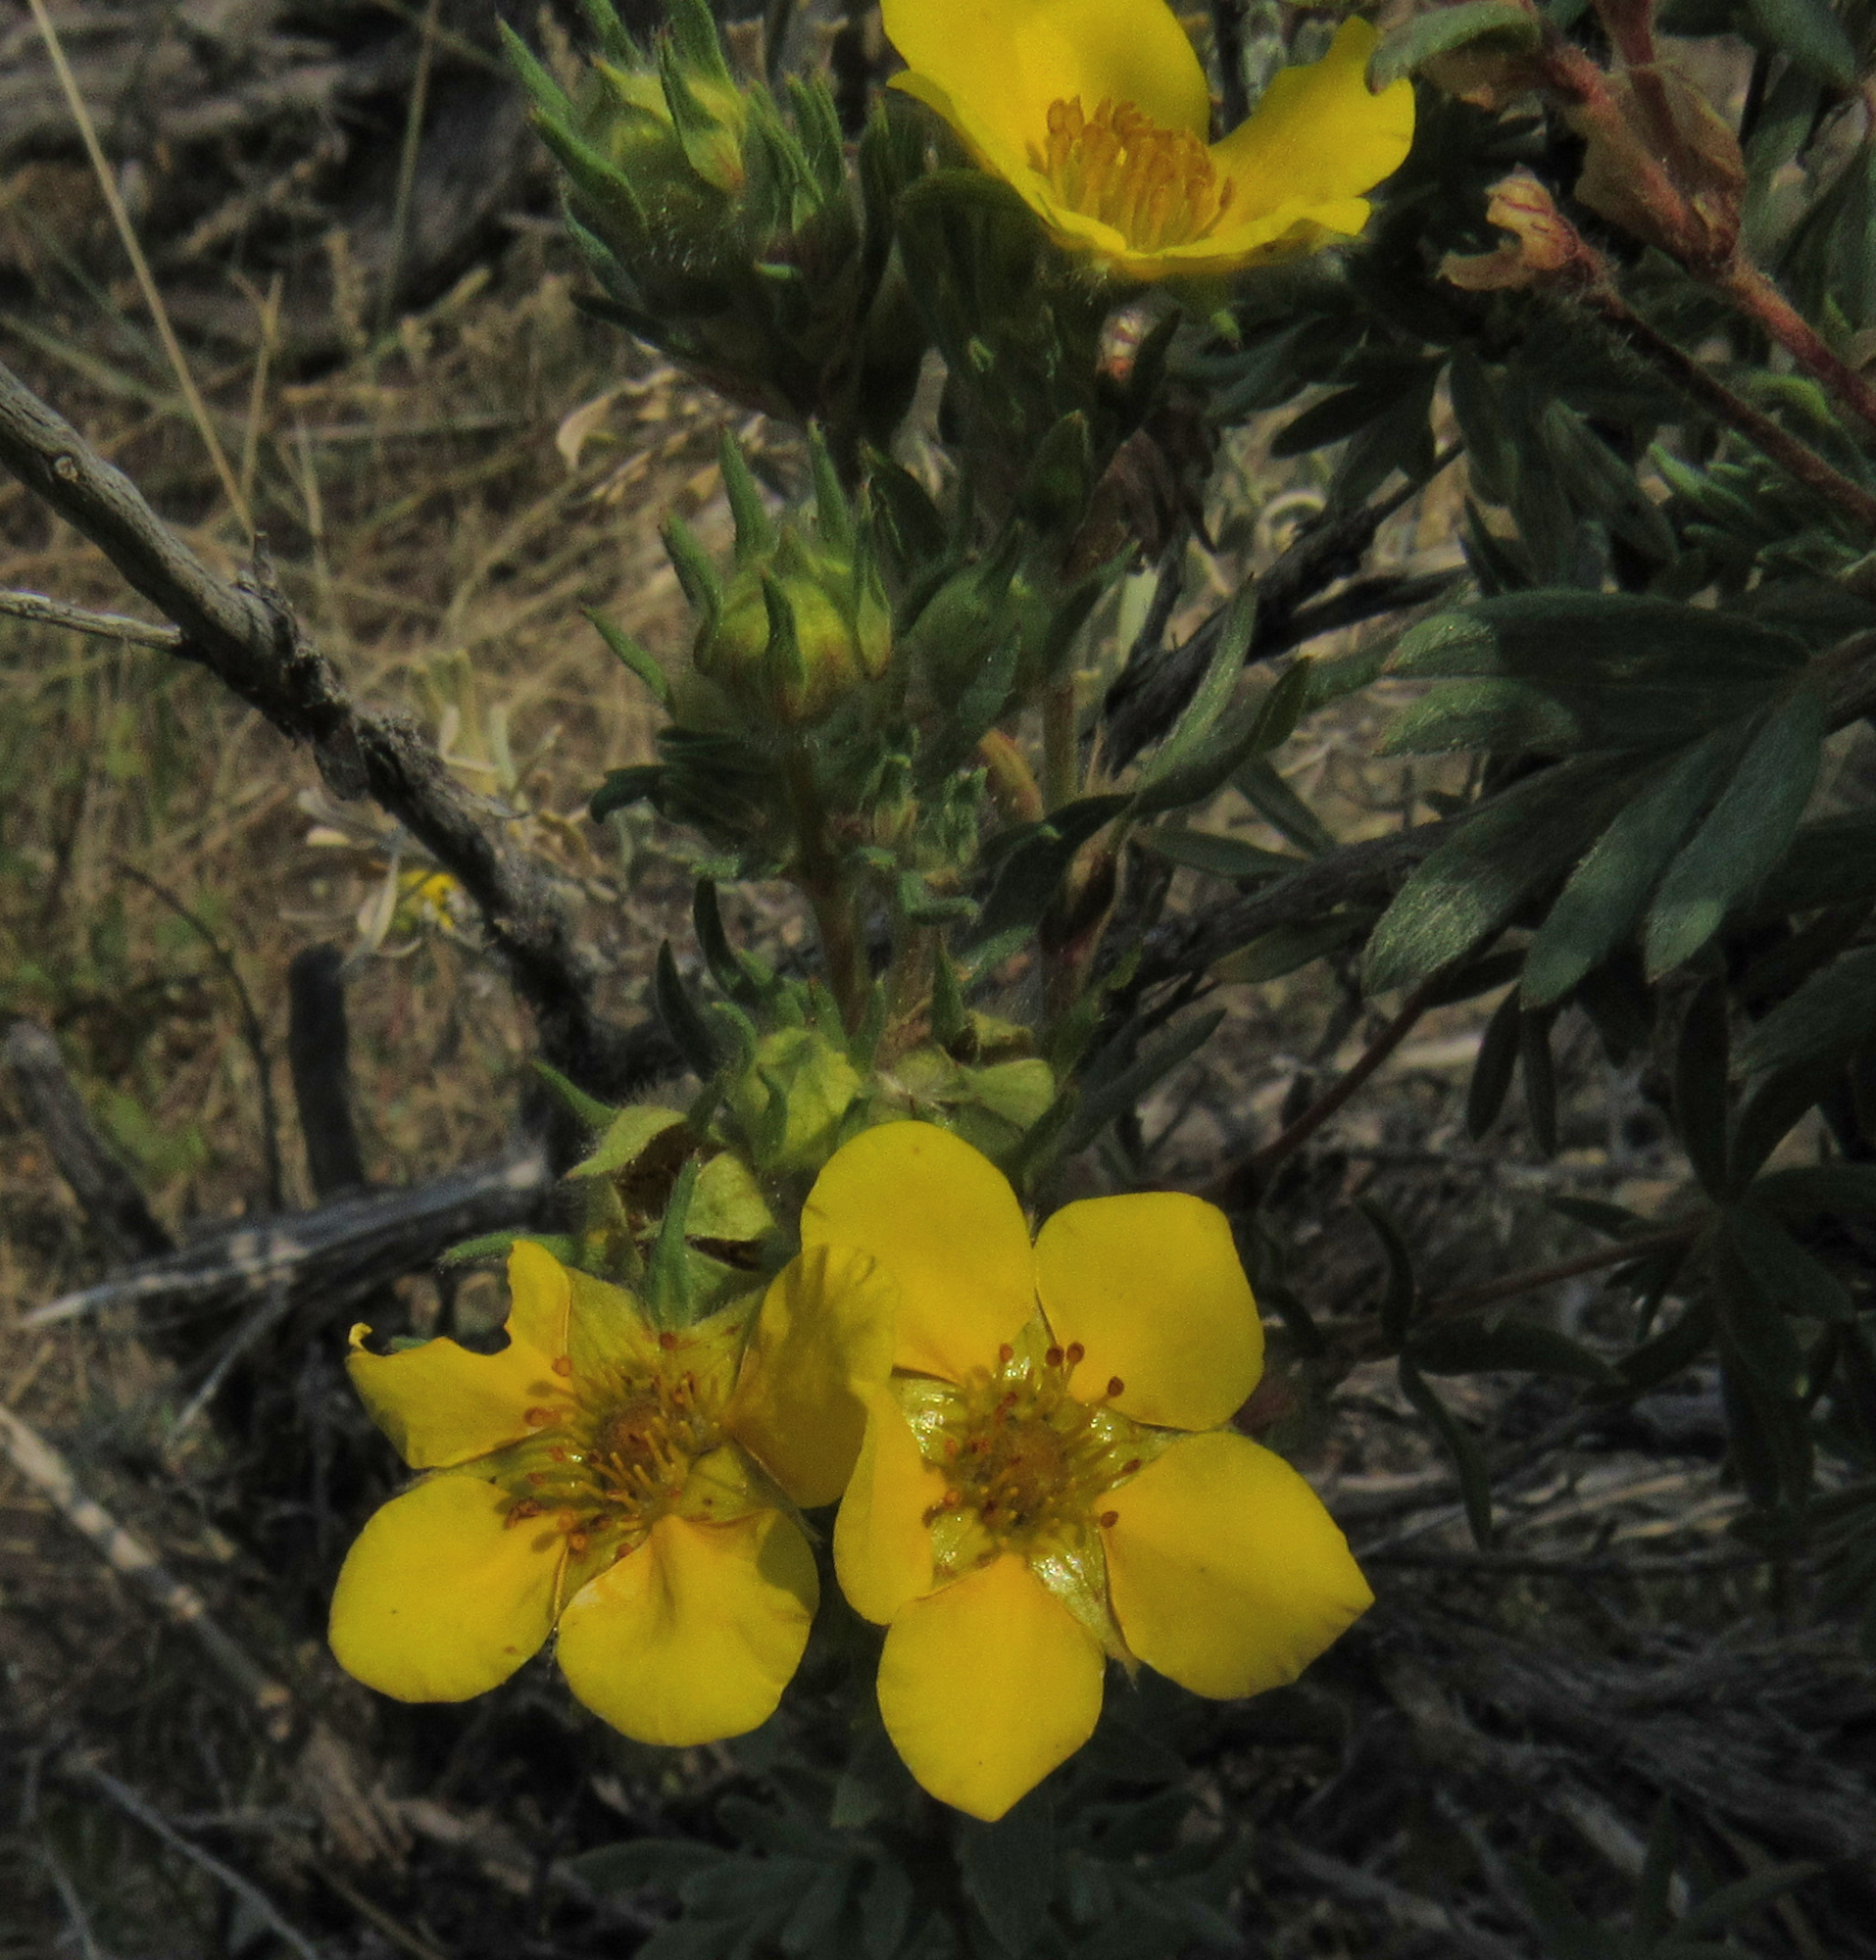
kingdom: Plantae
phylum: Tracheophyta
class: Magnoliopsida
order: Rosales
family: Rosaceae
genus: Dasiphora
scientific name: Dasiphora fruticosa
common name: Shrubby cinquefoil
